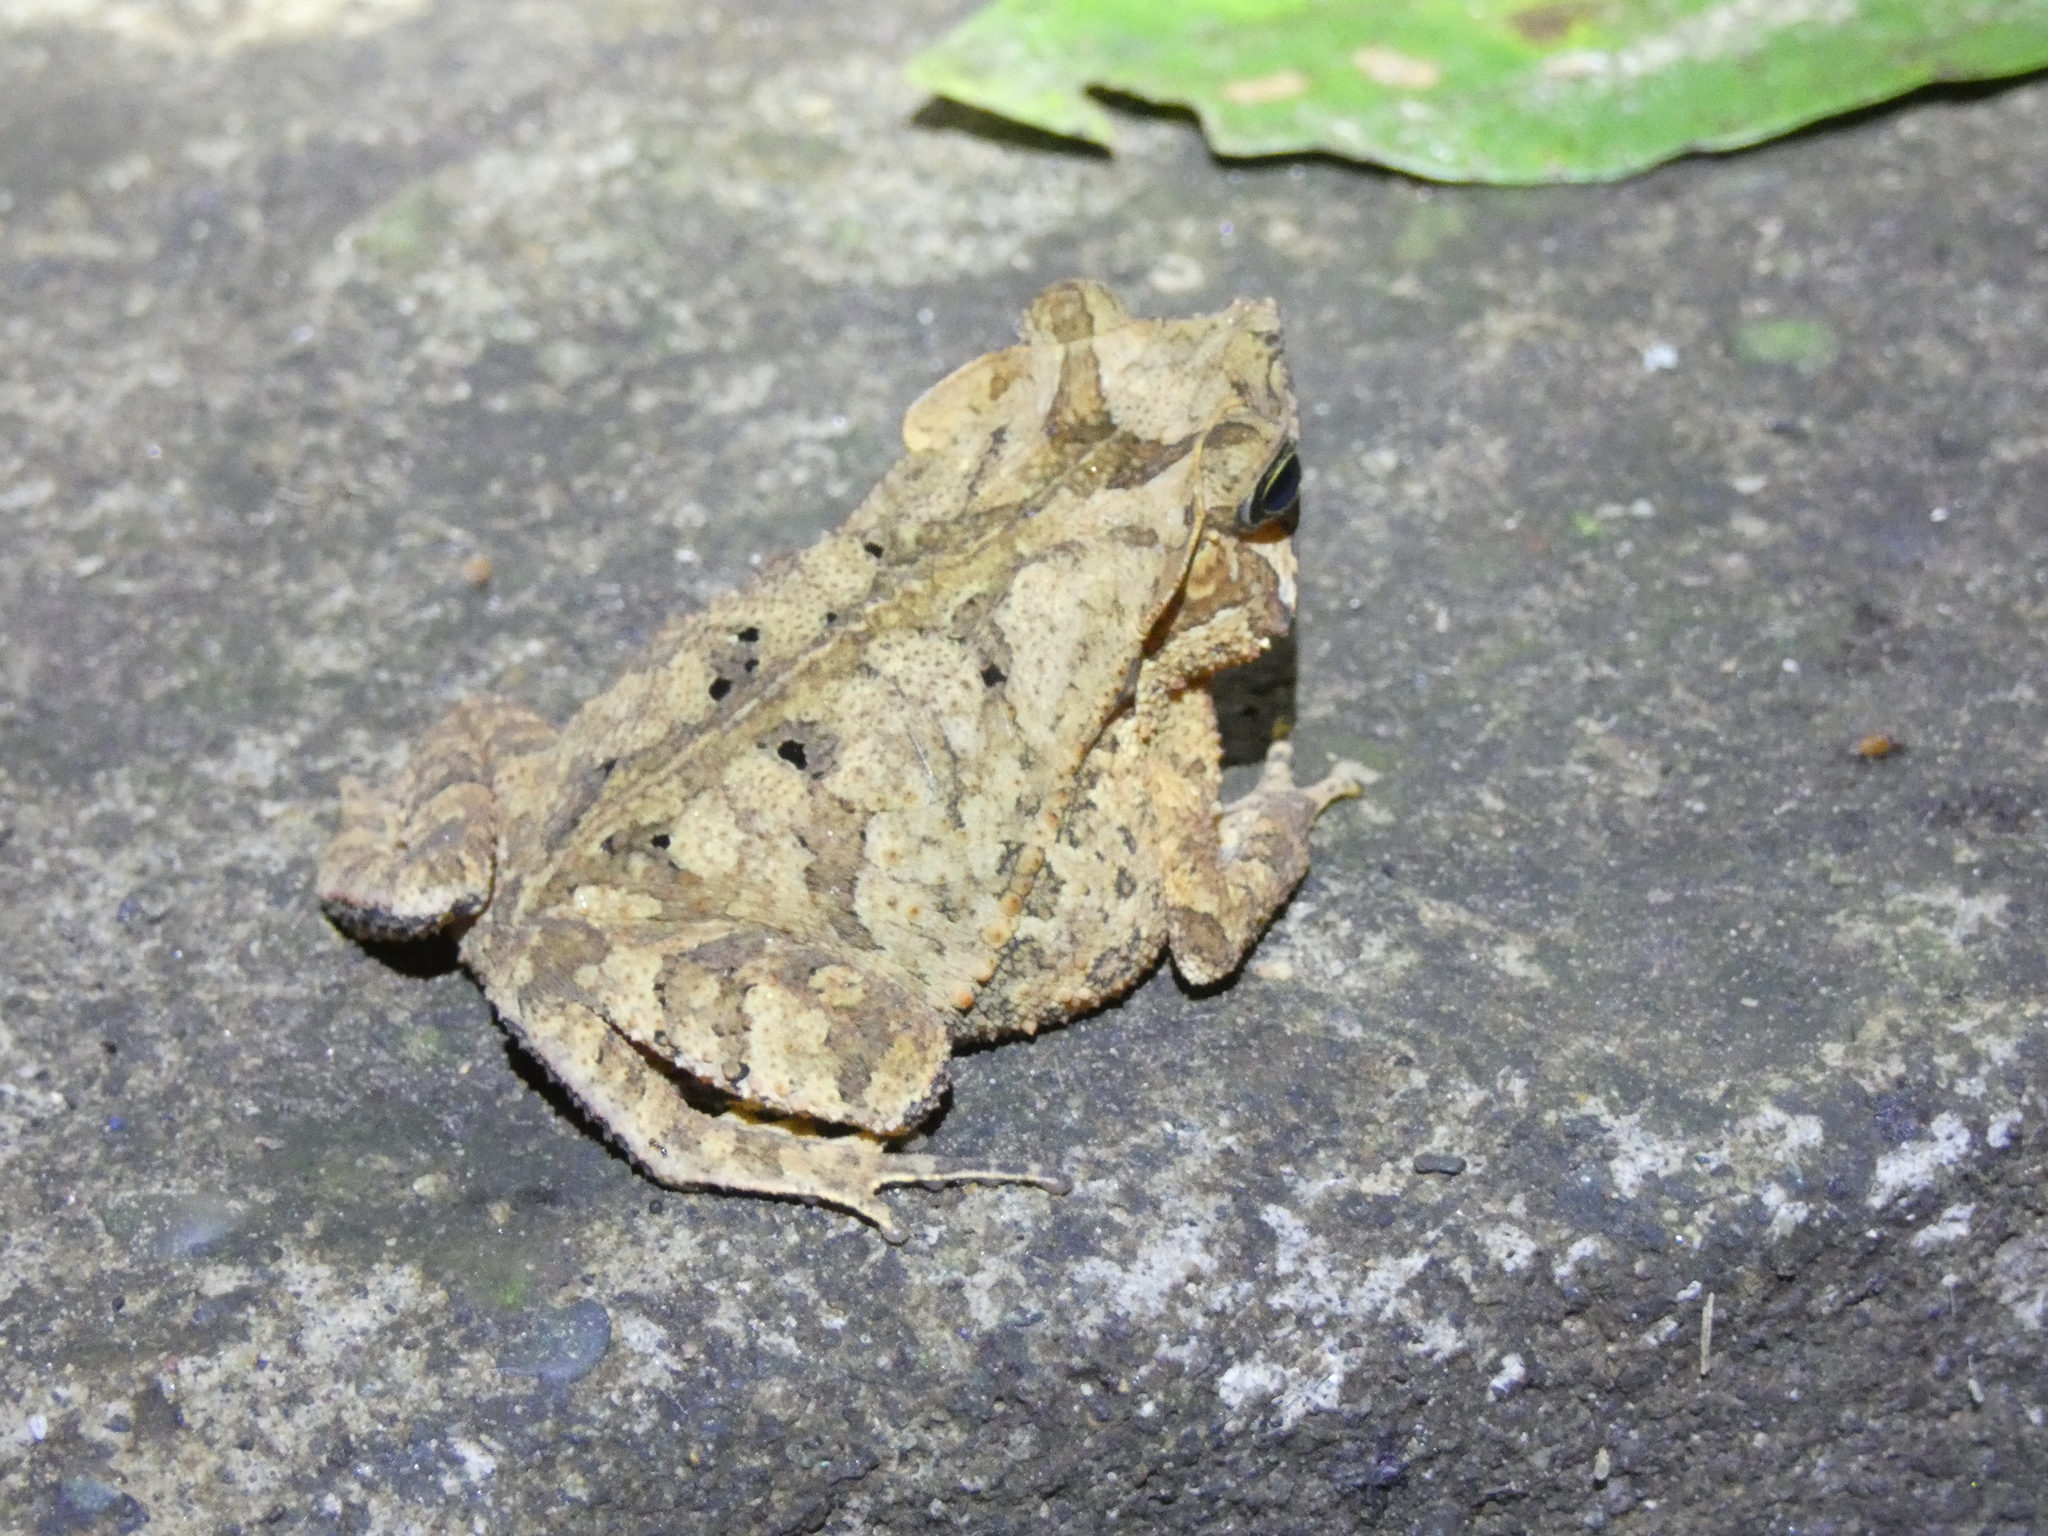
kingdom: Animalia
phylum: Chordata
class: Amphibia
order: Anura
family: Bufonidae
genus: Rhinella
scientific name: Rhinella margaritifera
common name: Mitred toad
